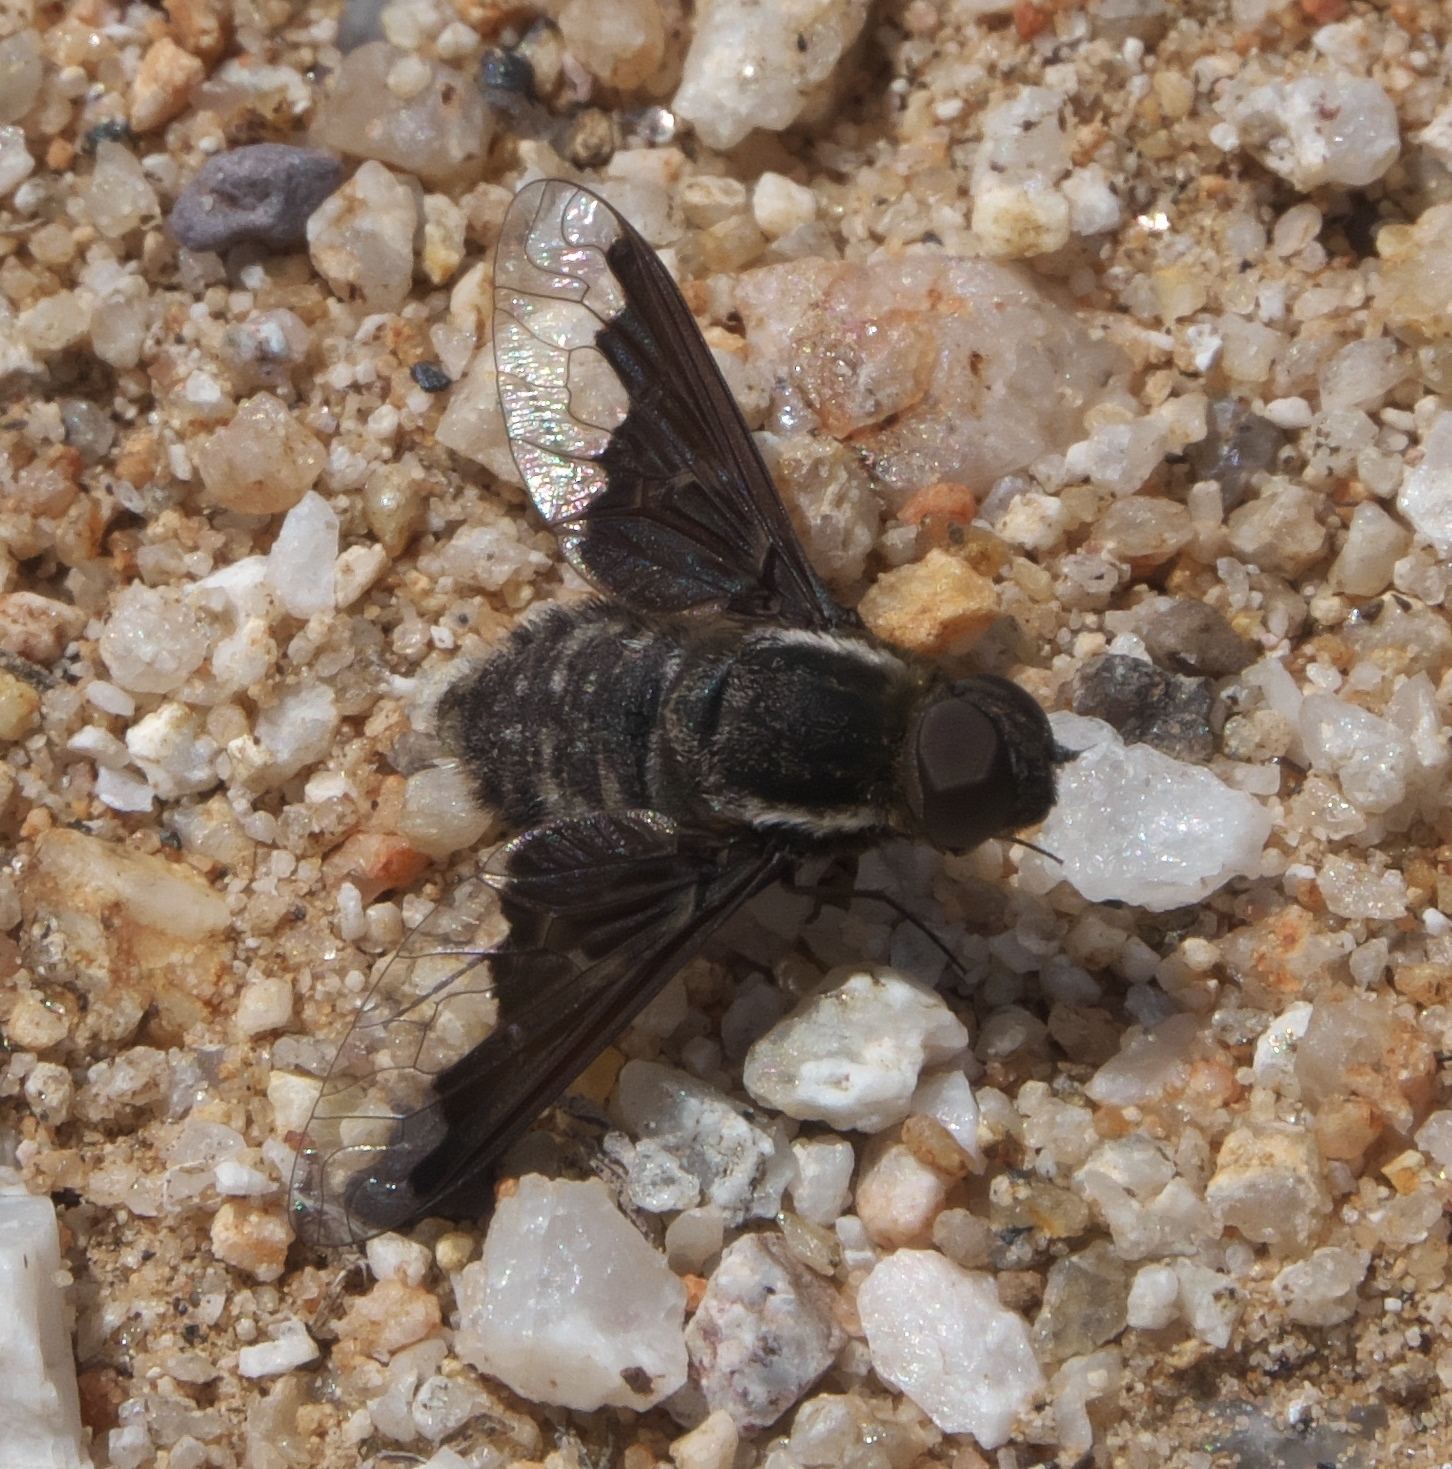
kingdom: Animalia
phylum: Arthropoda
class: Insecta
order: Diptera
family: Bombyliidae
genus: Hemipenthes
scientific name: Hemipenthes seminiger
